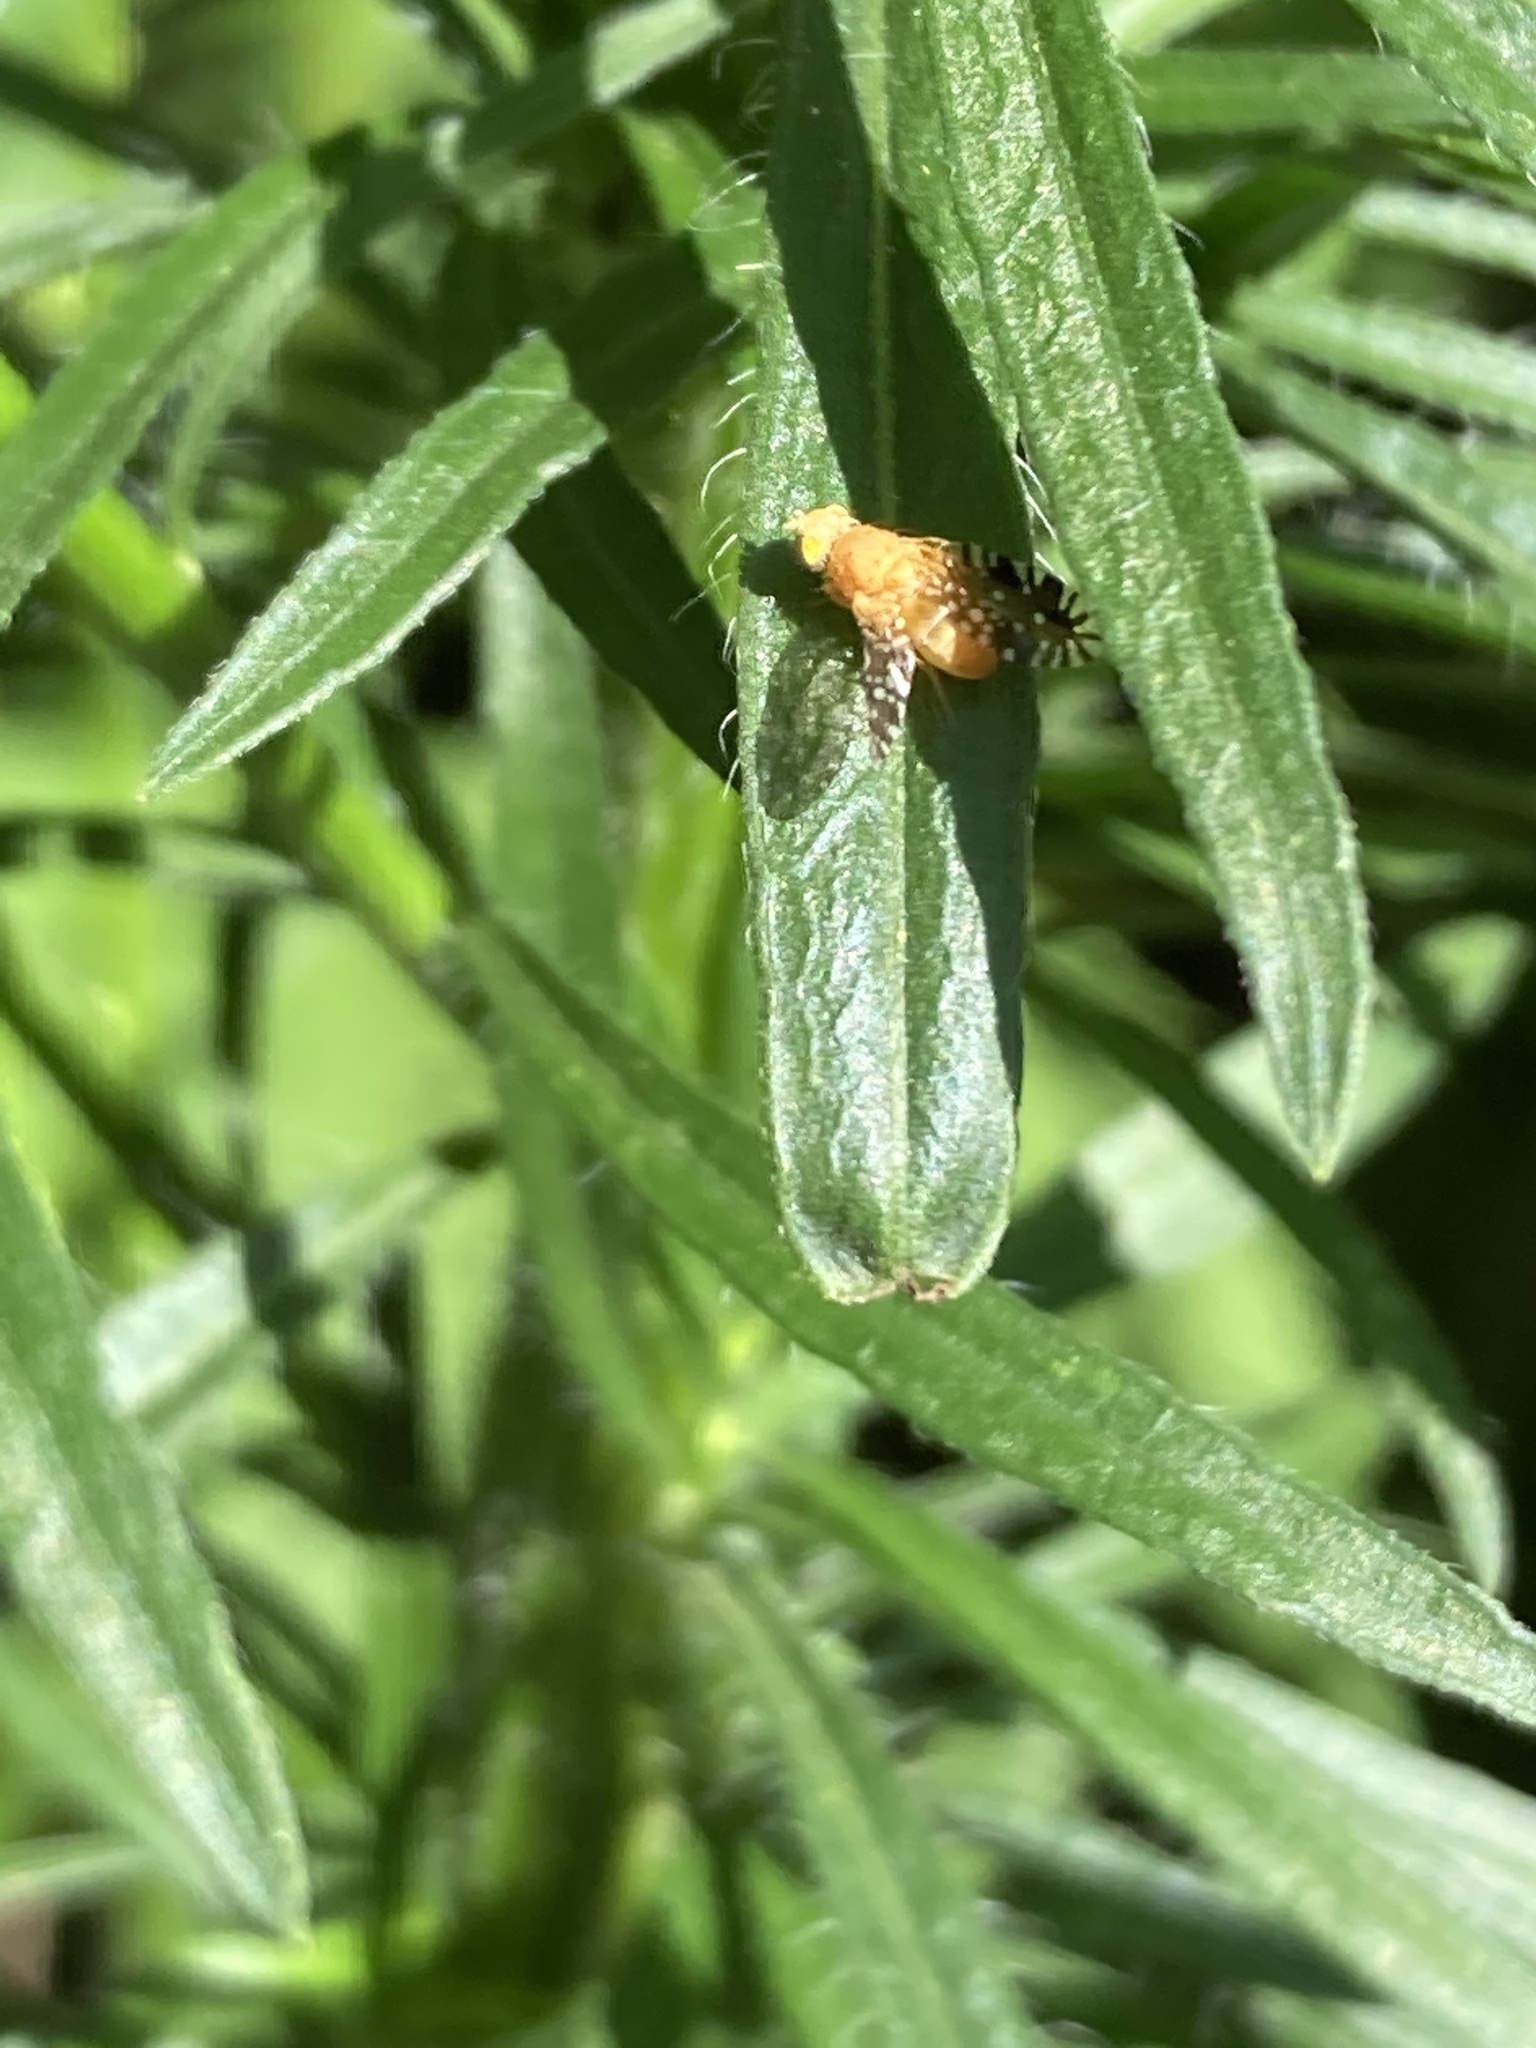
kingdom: Animalia
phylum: Arthropoda
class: Insecta
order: Diptera
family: Tephritidae
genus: Euaresta
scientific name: Euaresta festiva
